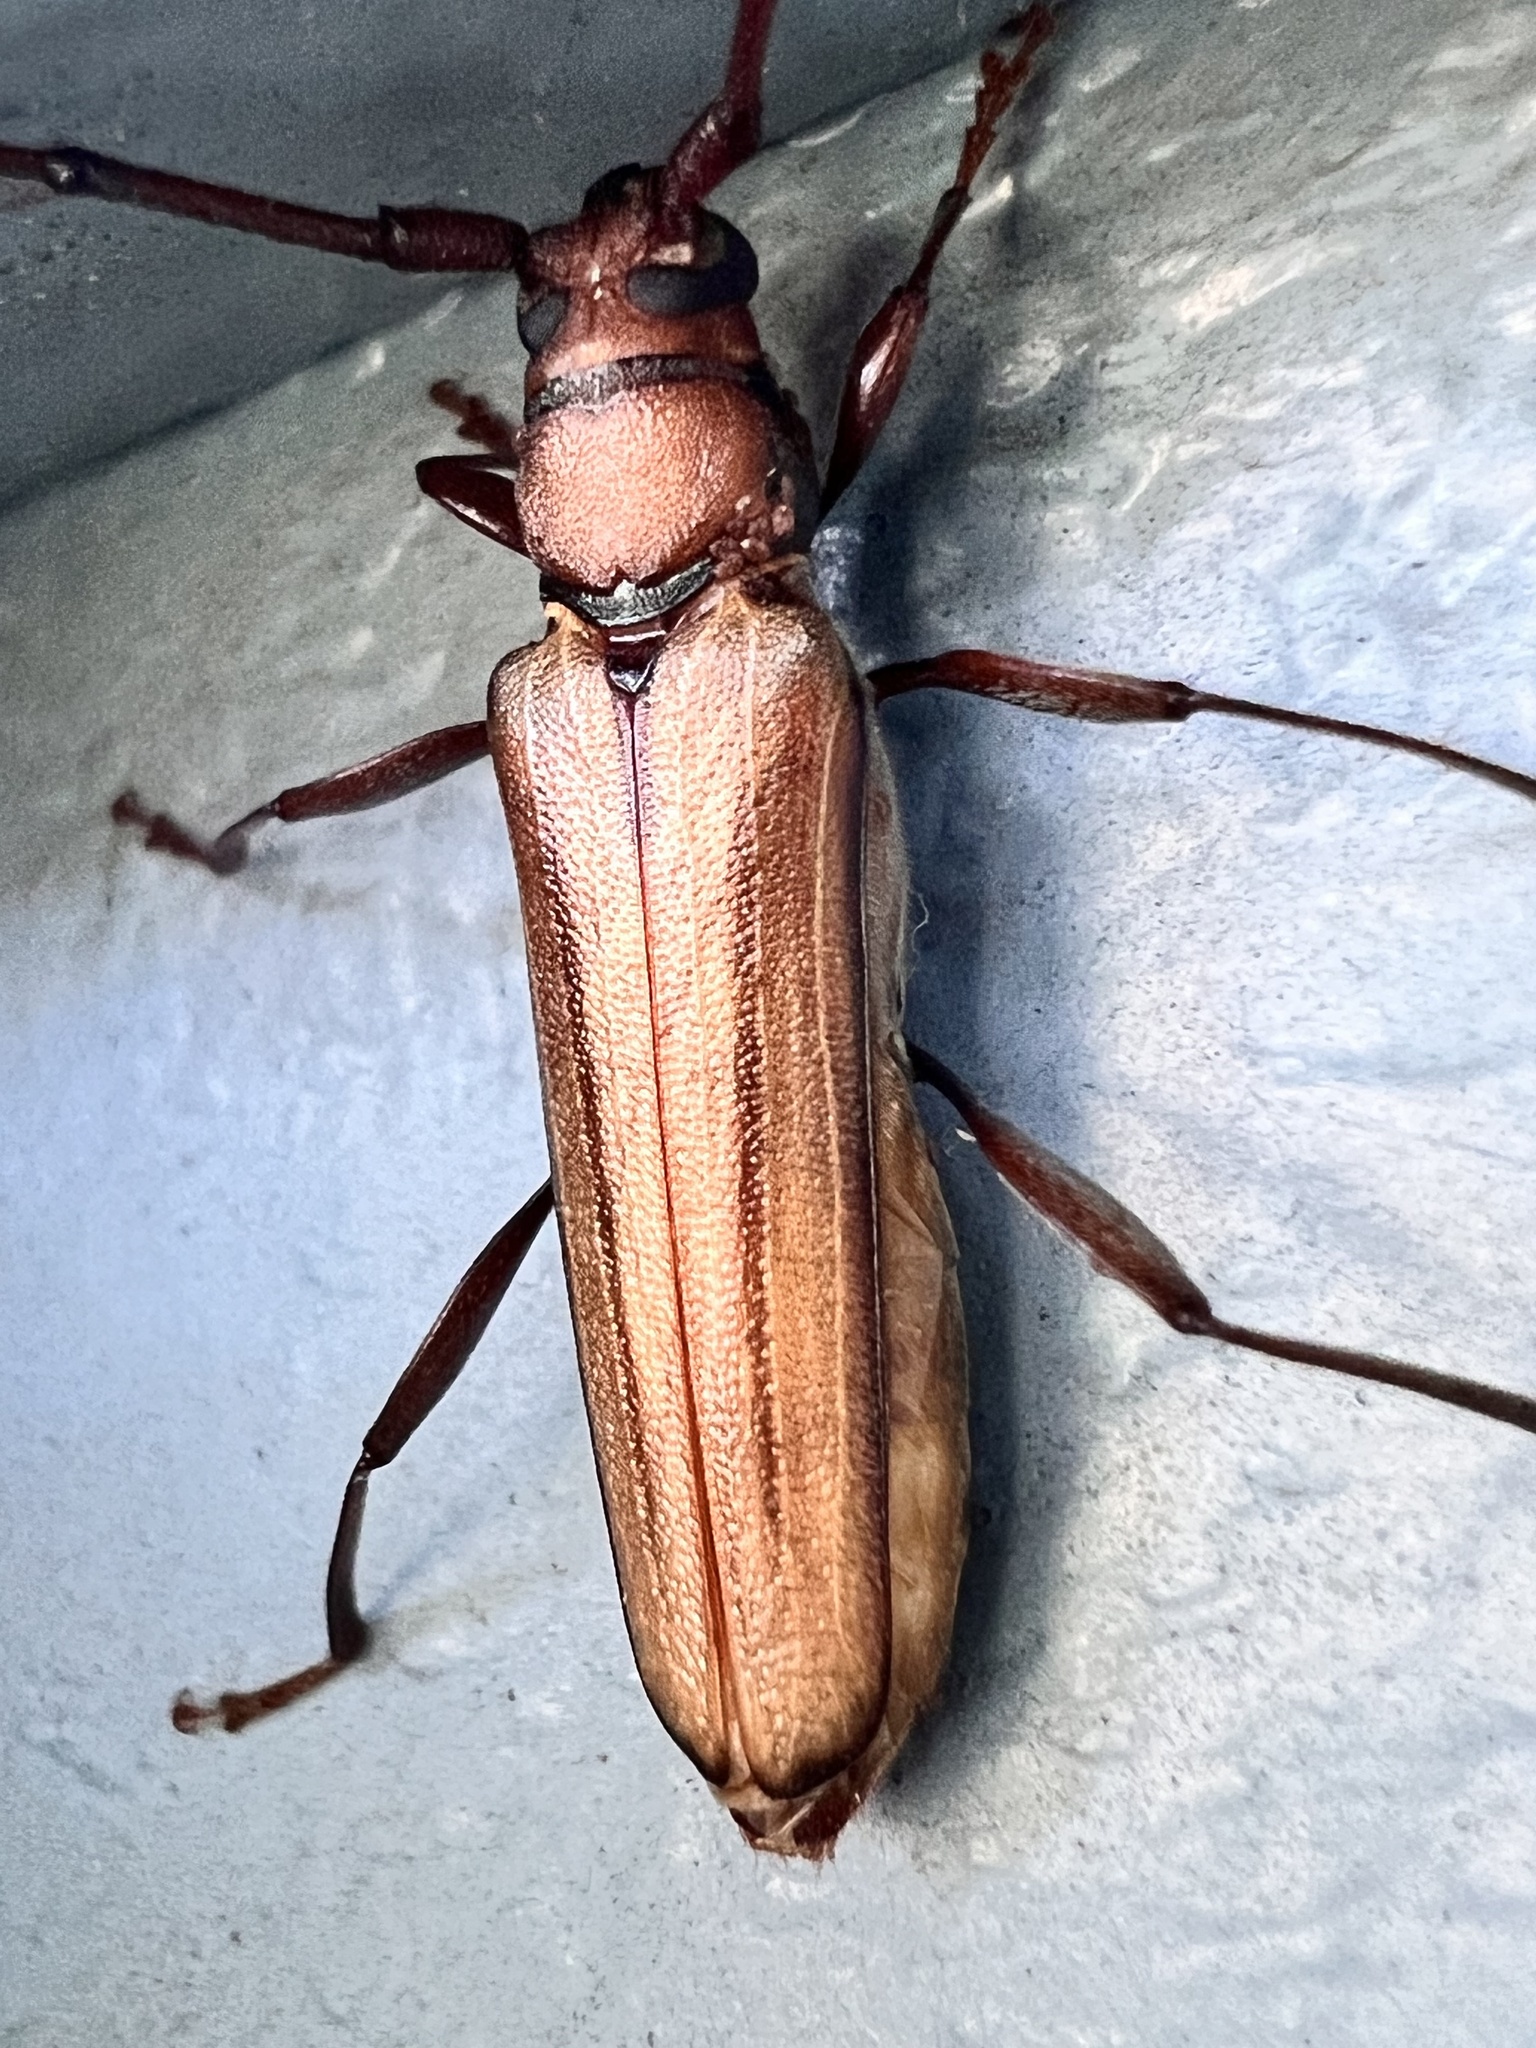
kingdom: Animalia
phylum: Arthropoda
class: Insecta
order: Coleoptera
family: Cerambycidae
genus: Xystrocera
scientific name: Xystrocera globosa
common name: Peach-tree longhorn
